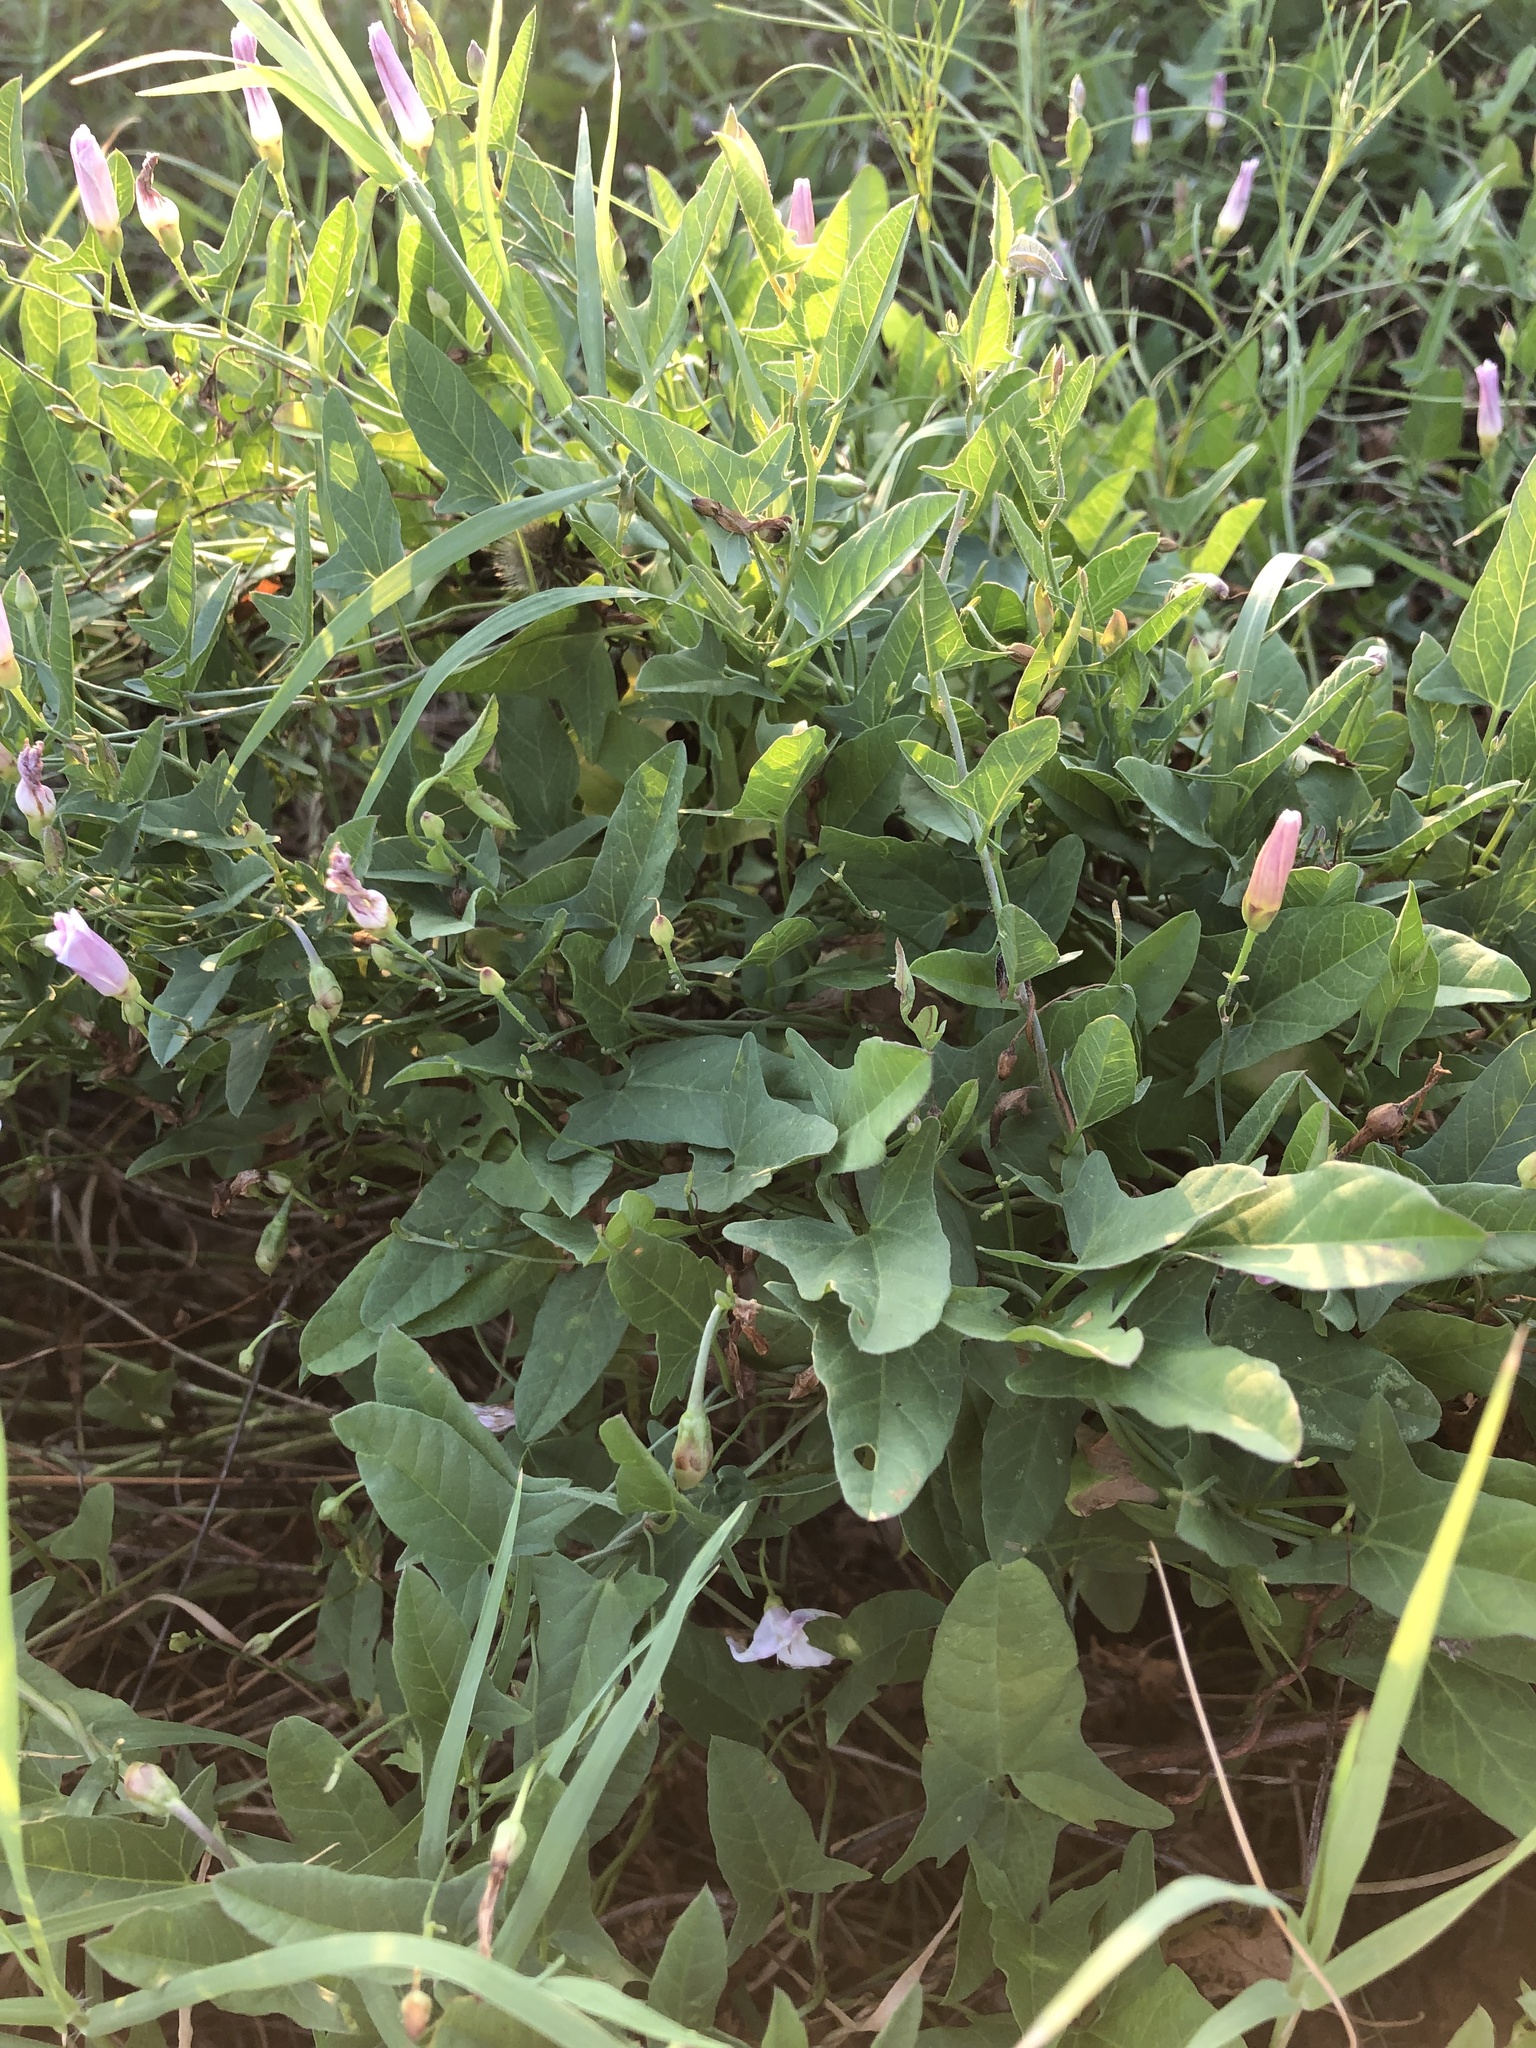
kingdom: Plantae
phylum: Tracheophyta
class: Magnoliopsida
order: Solanales
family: Convolvulaceae
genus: Convolvulus
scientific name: Convolvulus arvensis
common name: Field bindweed
